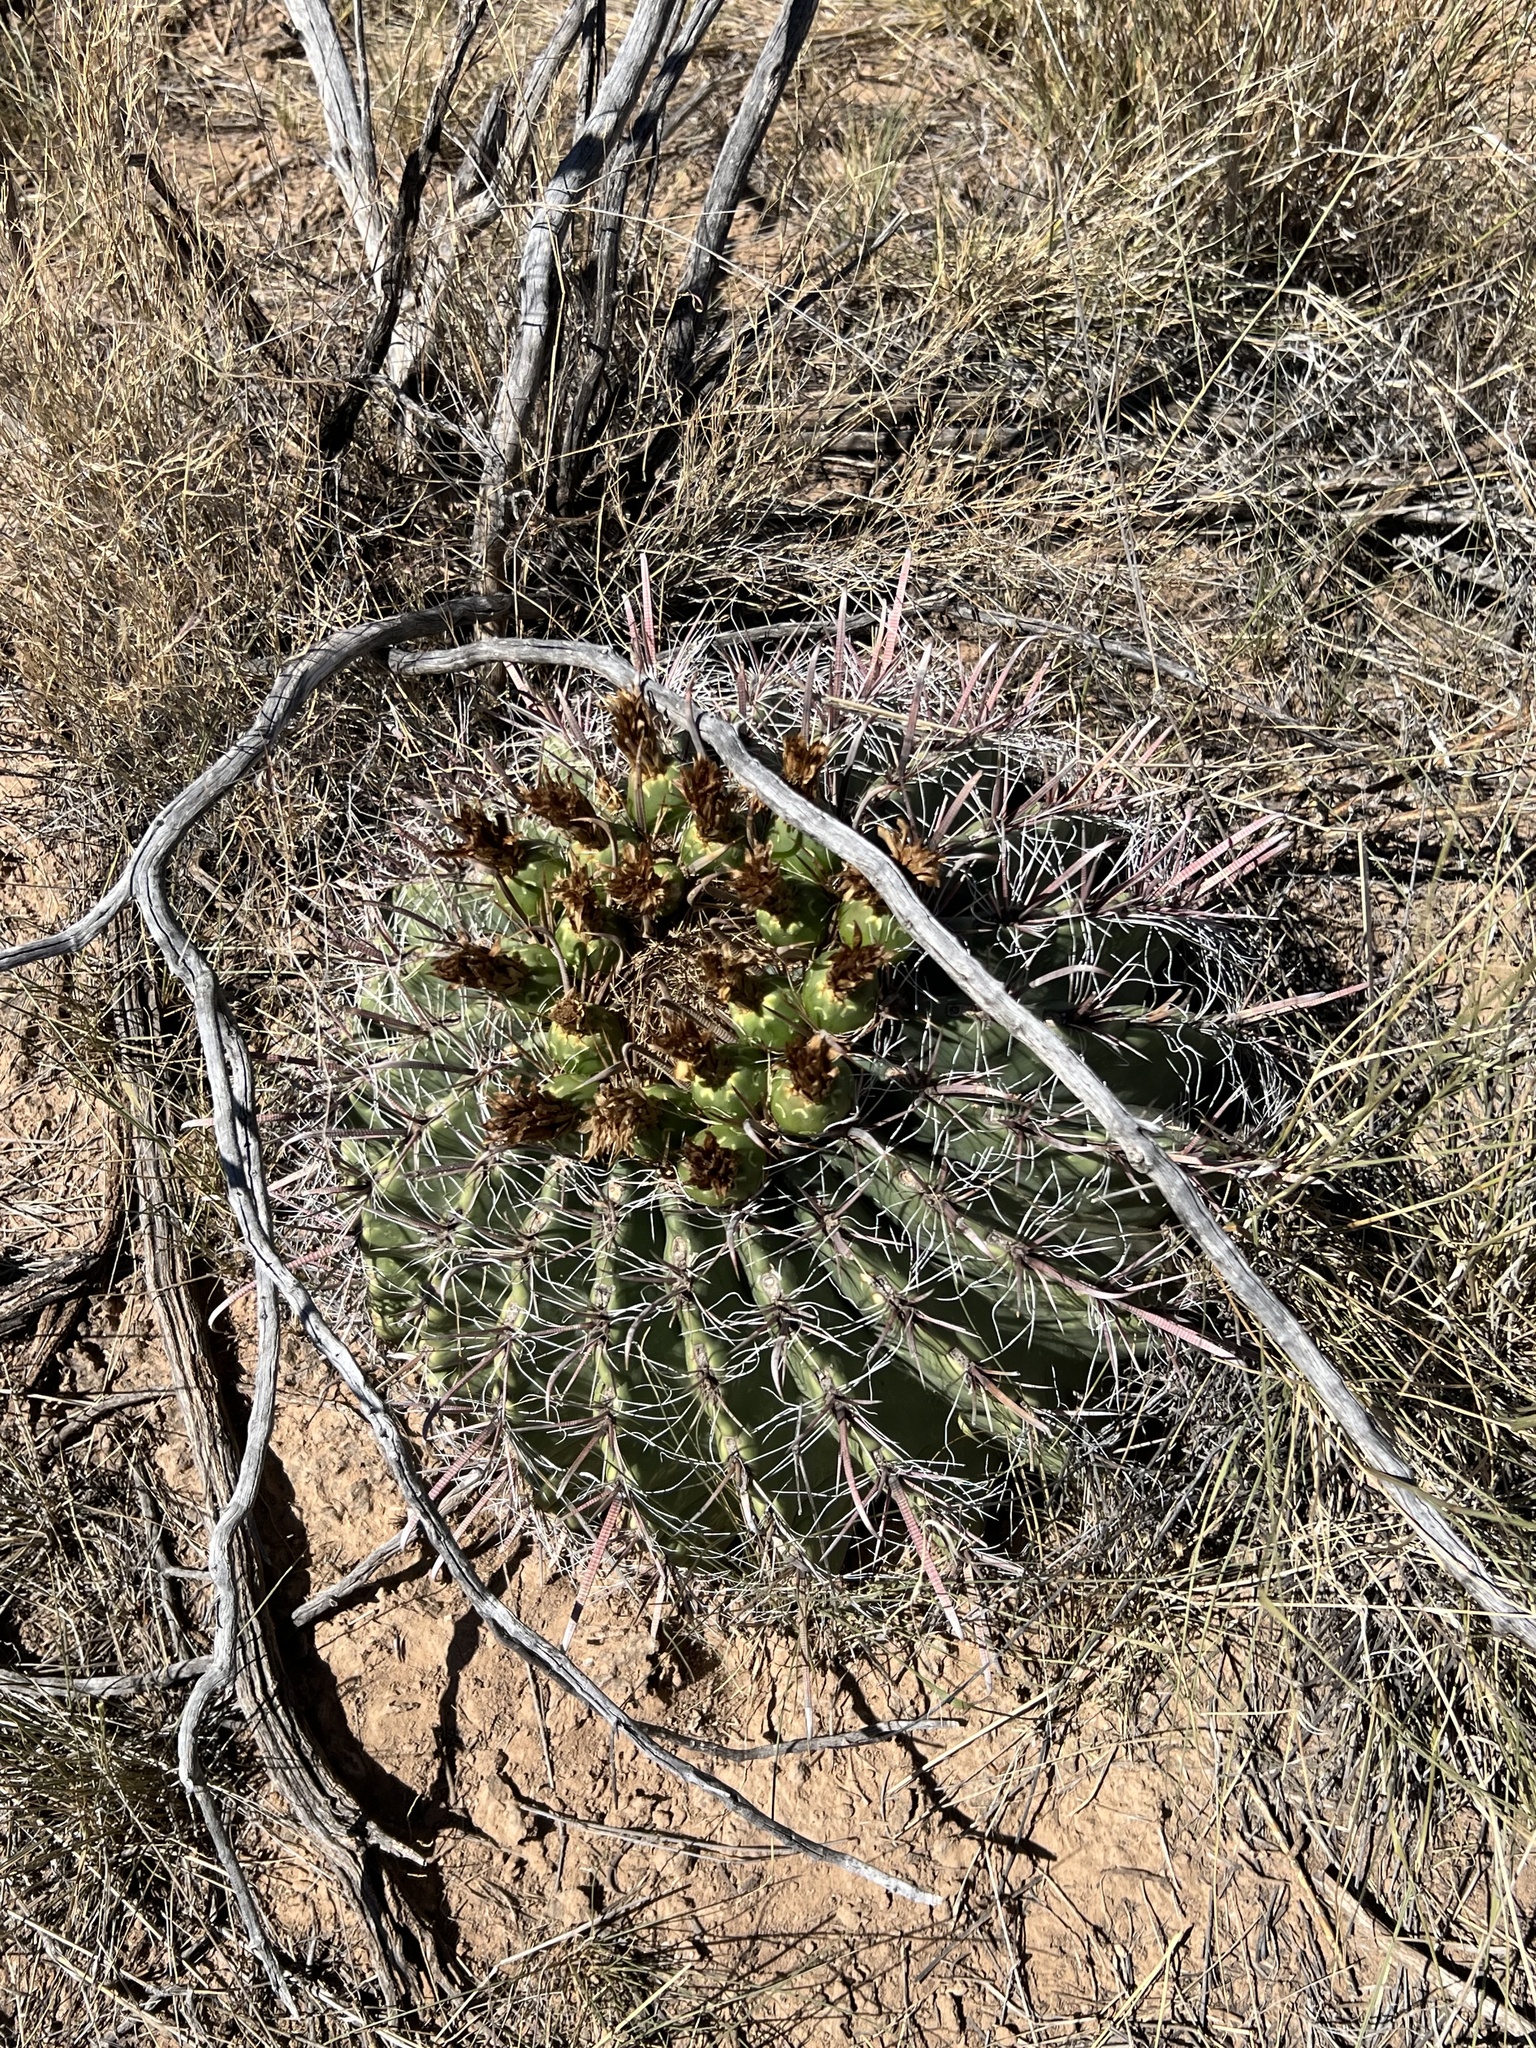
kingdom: Plantae
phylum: Tracheophyta
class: Magnoliopsida
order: Caryophyllales
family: Cactaceae
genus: Ferocactus
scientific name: Ferocactus wislizeni
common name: Candy barrel cactus
